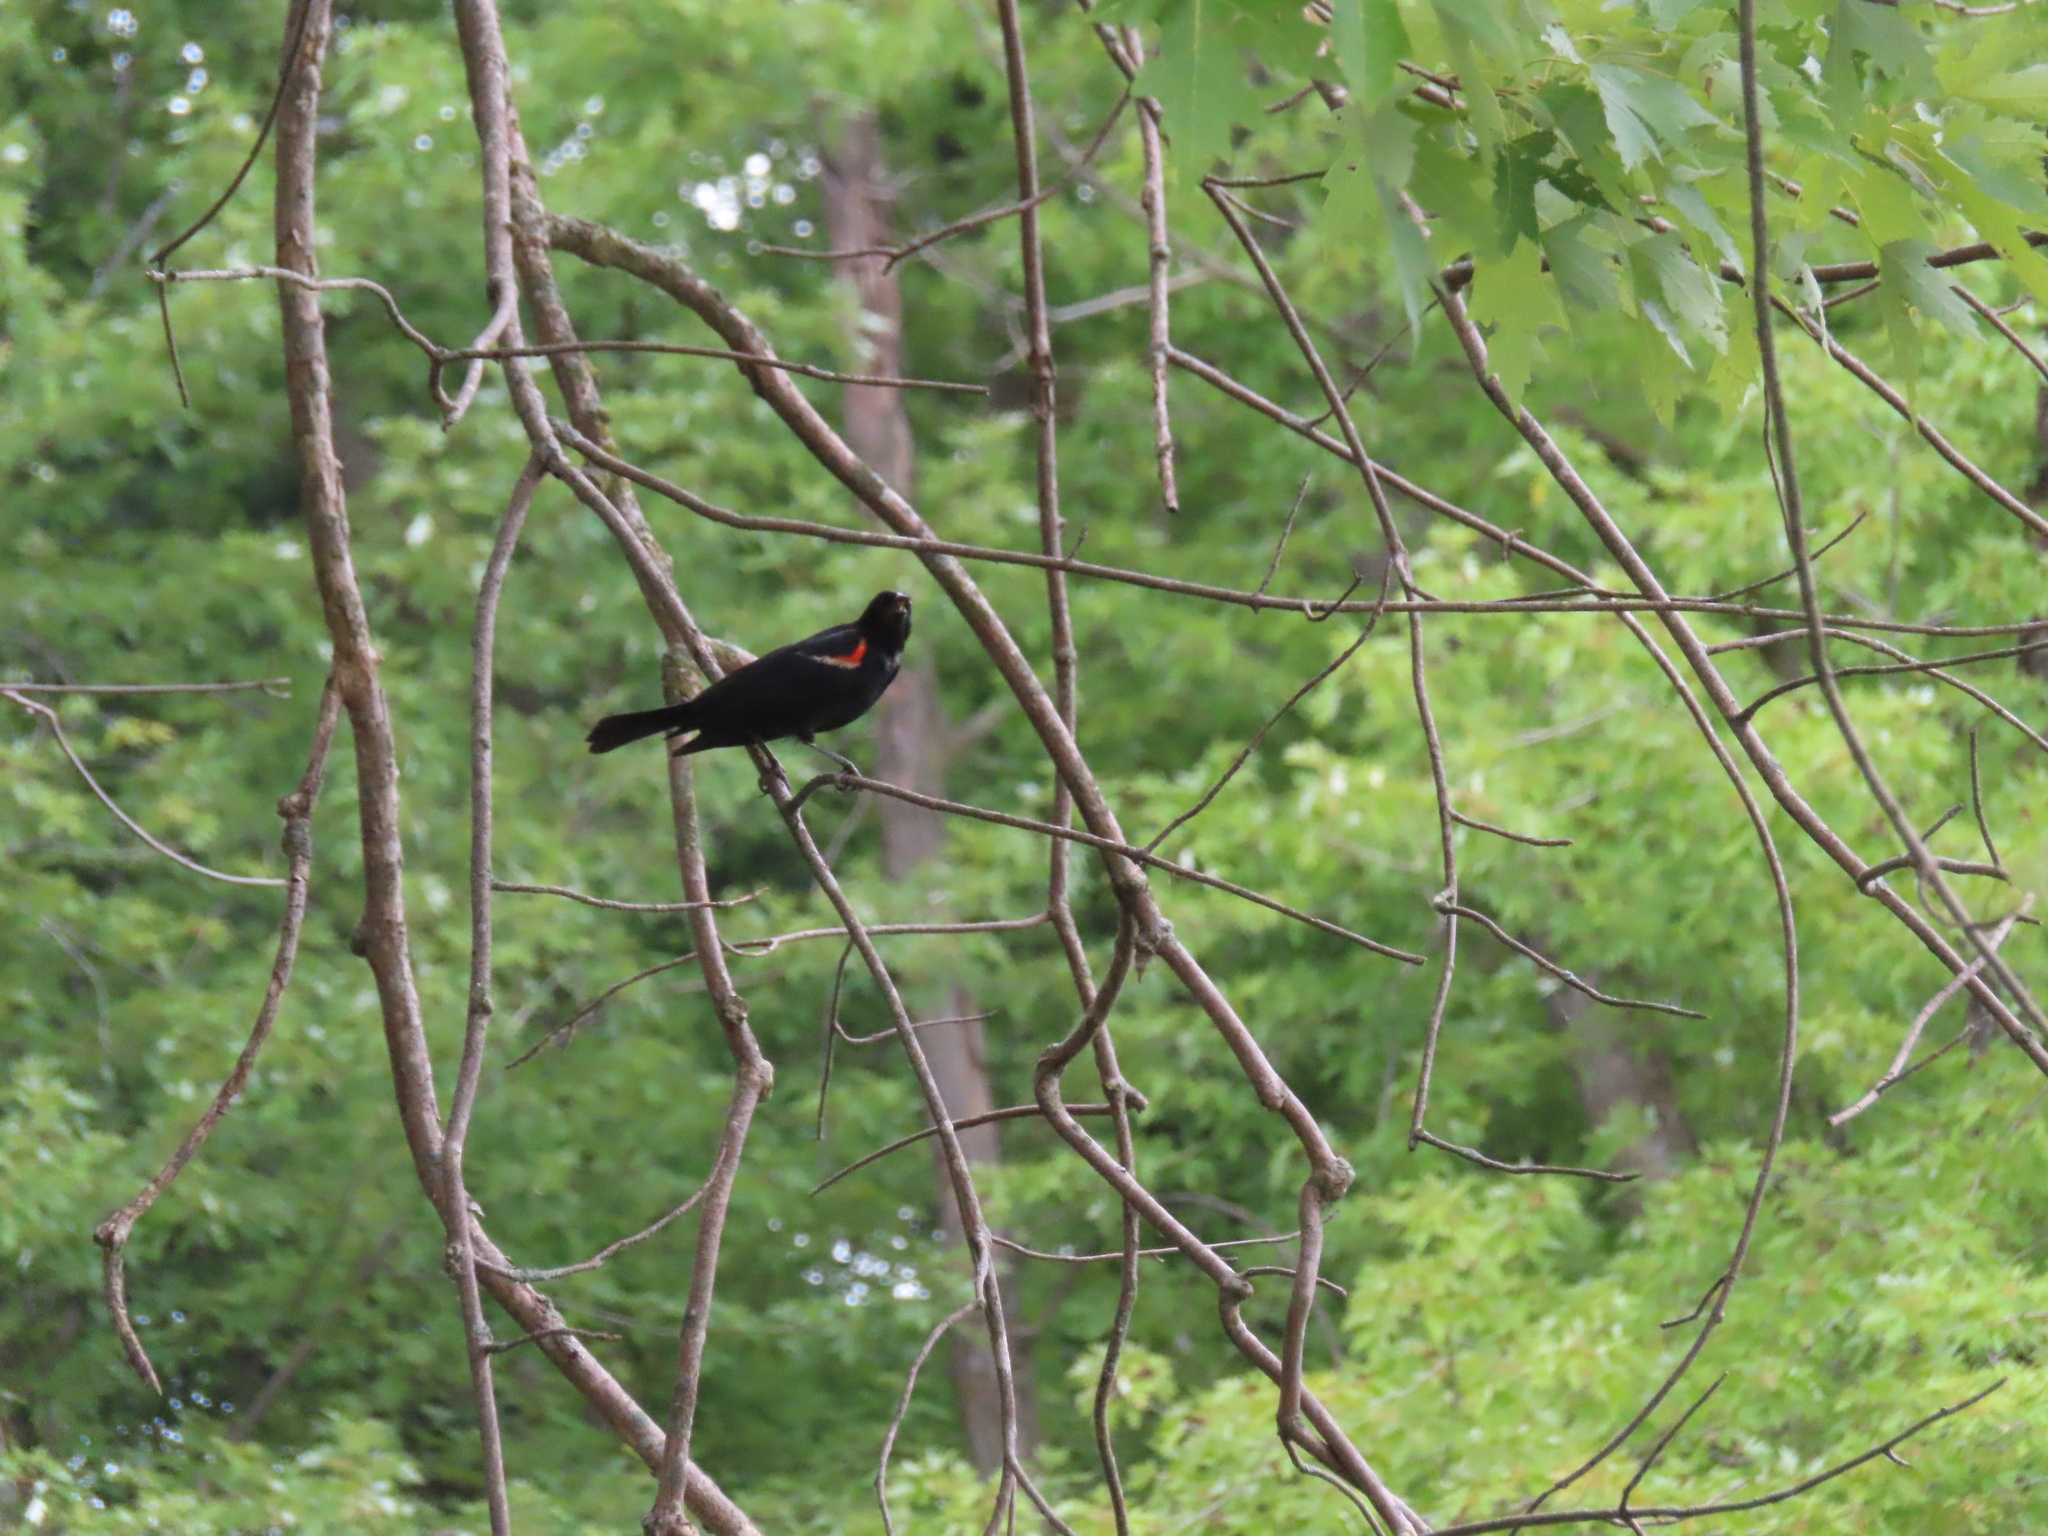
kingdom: Animalia
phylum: Chordata
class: Aves
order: Passeriformes
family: Icteridae
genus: Agelaius
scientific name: Agelaius phoeniceus
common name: Red-winged blackbird
